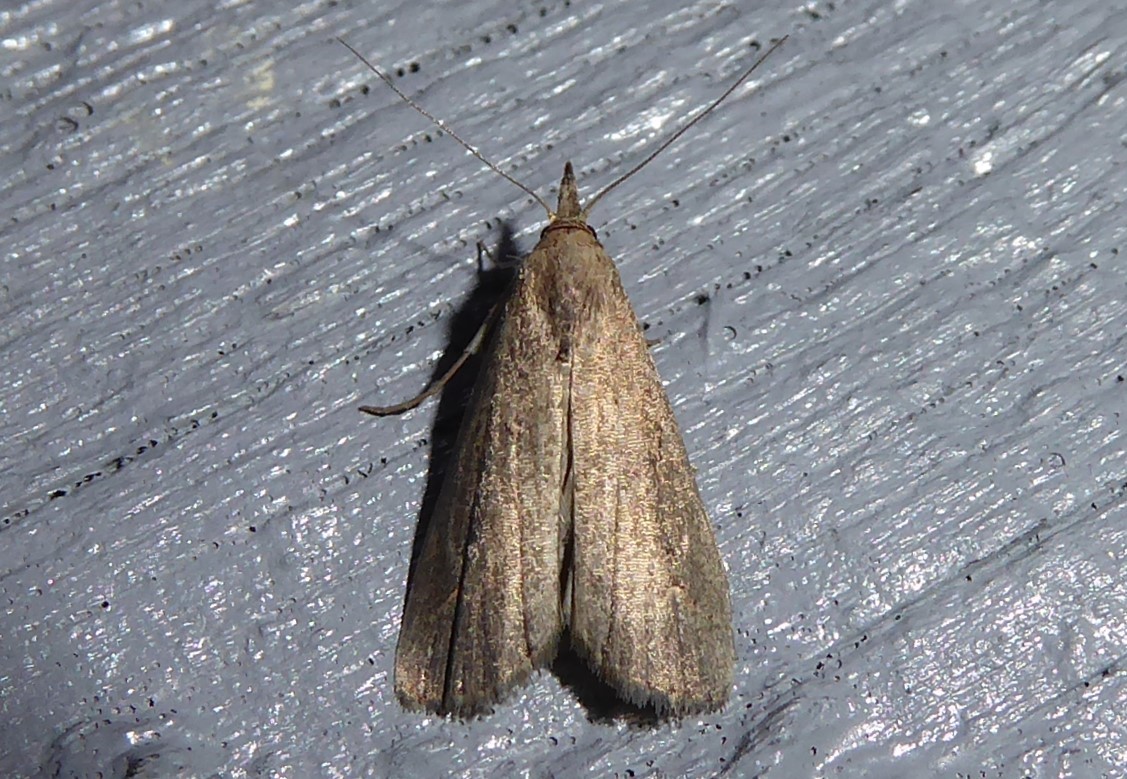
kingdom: Animalia
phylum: Arthropoda
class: Insecta
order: Lepidoptera
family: Erebidae
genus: Schrankia
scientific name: Schrankia costaestrigalis
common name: Pinion-streaked snout
